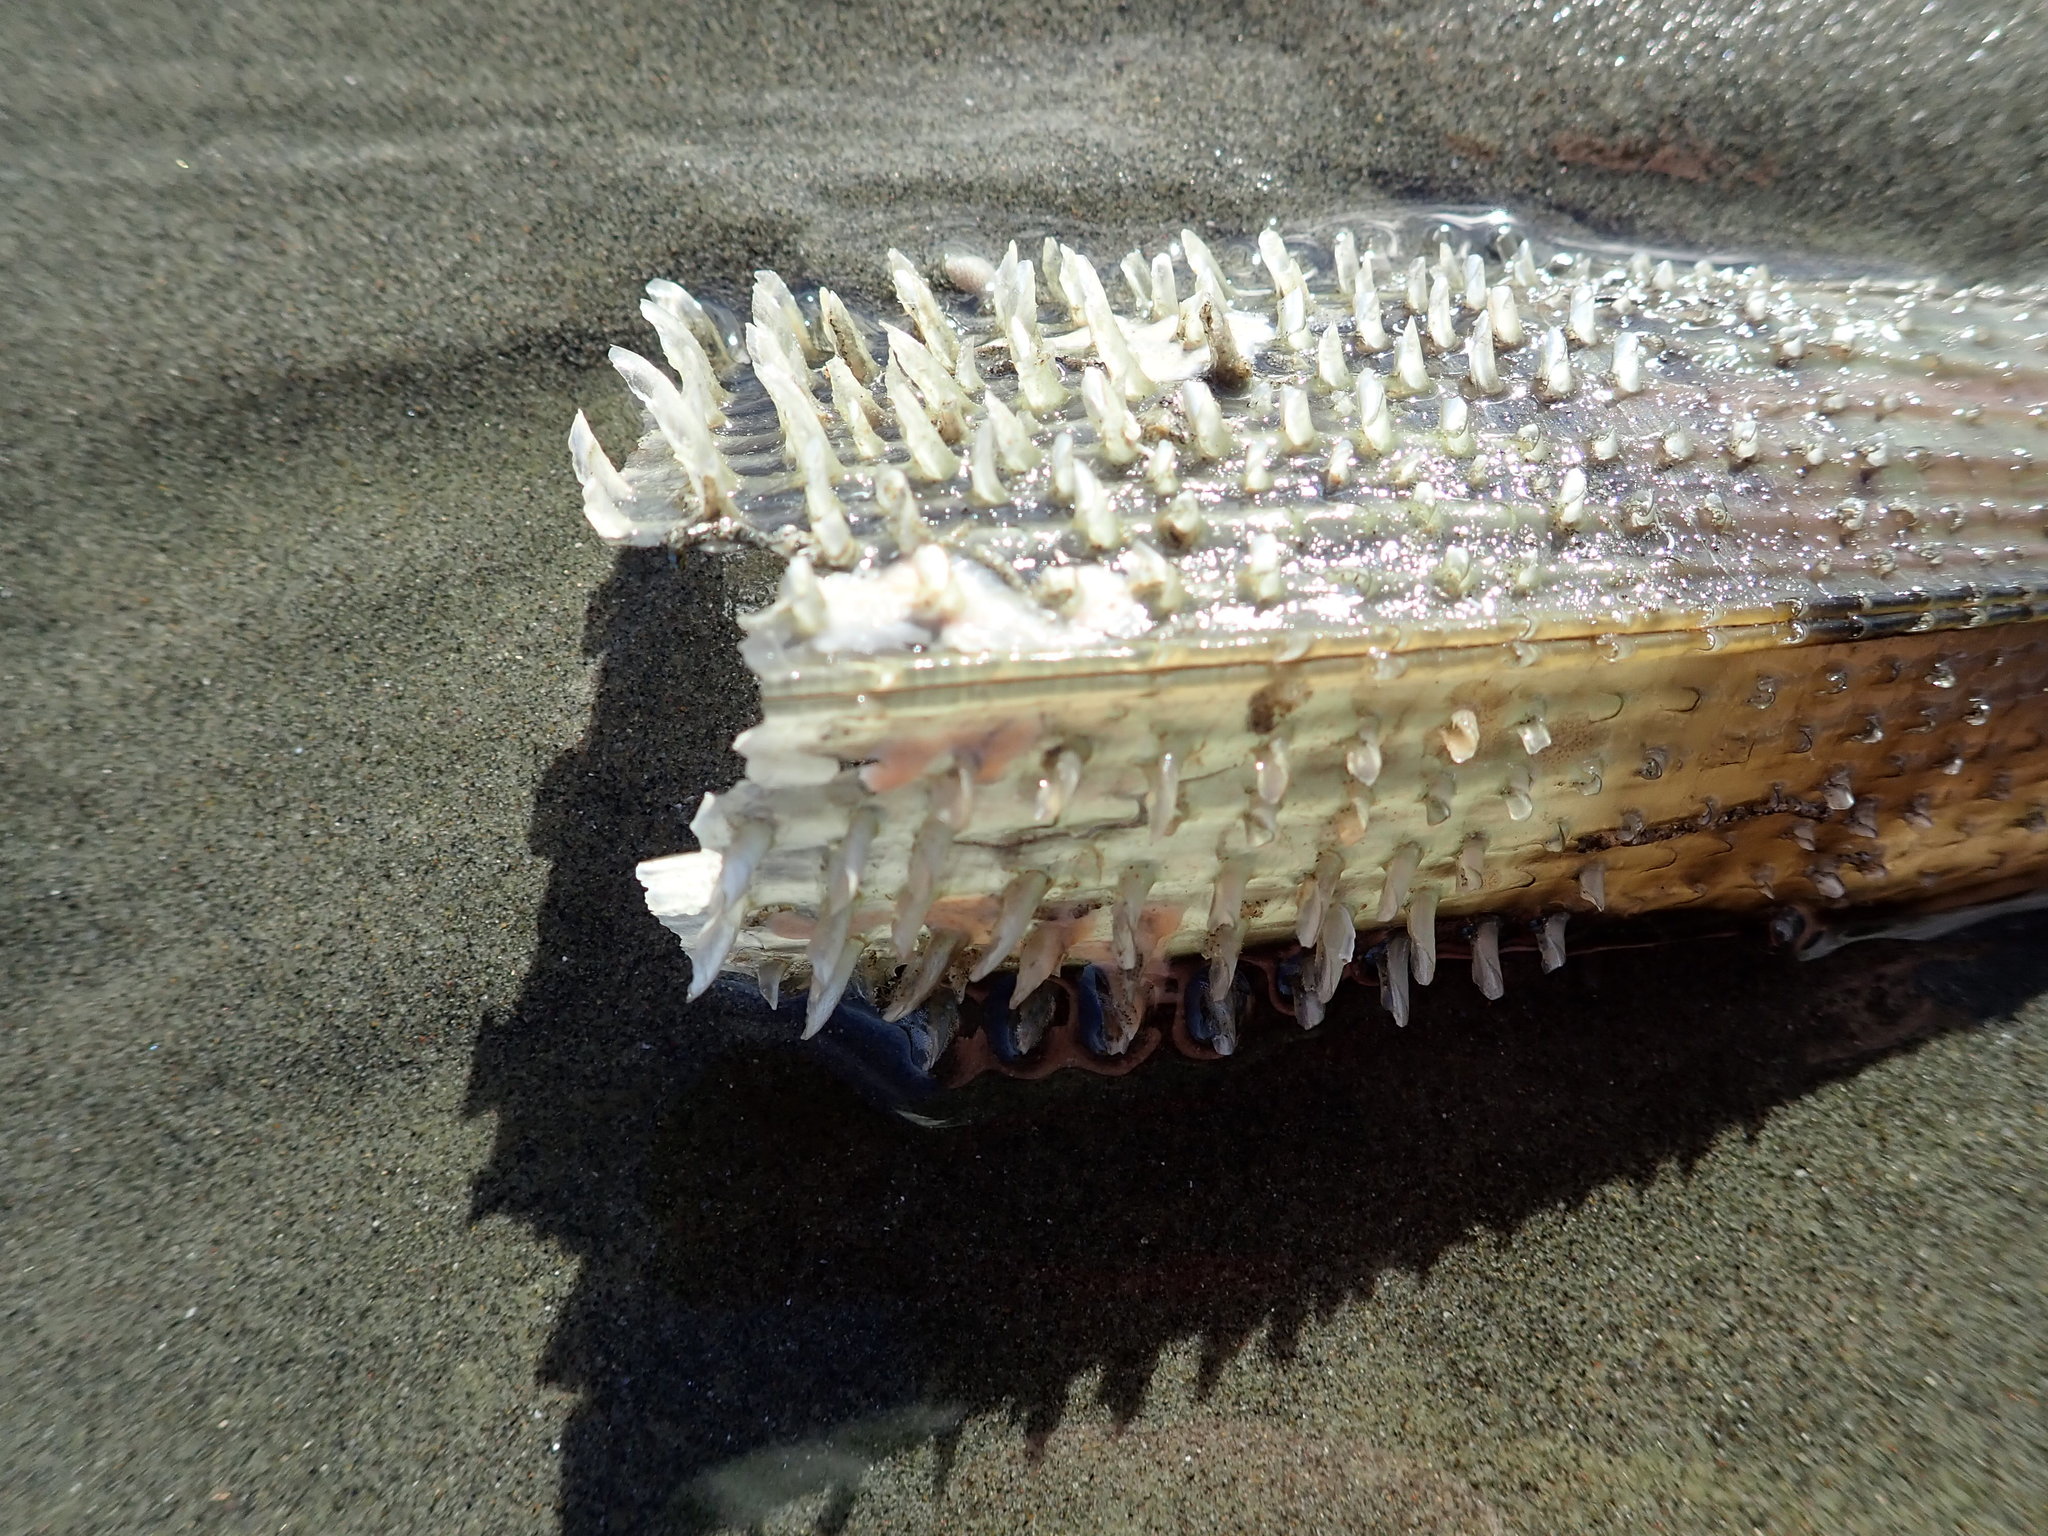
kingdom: Animalia
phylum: Mollusca
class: Bivalvia
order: Ostreida
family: Pinnidae
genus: Atrina
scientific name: Atrina zelandica
